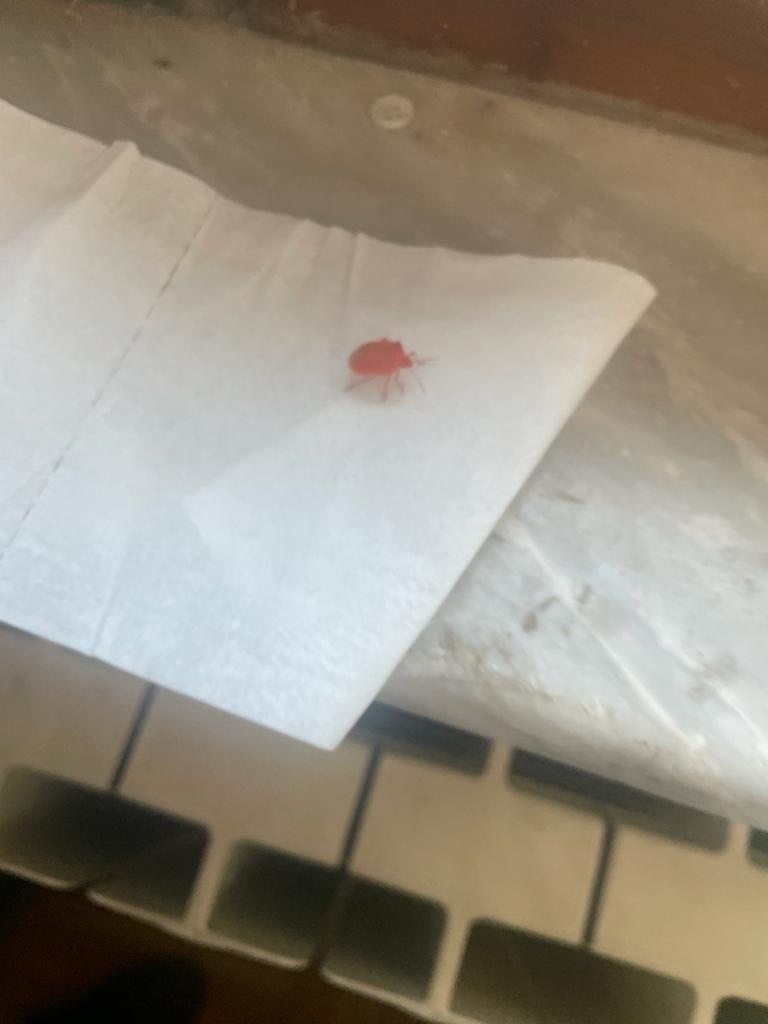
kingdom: Animalia
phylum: Arthropoda
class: Insecta
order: Hemiptera
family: Pentatomidae
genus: Nezara
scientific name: Nezara viridula
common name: Southern green stink bug
